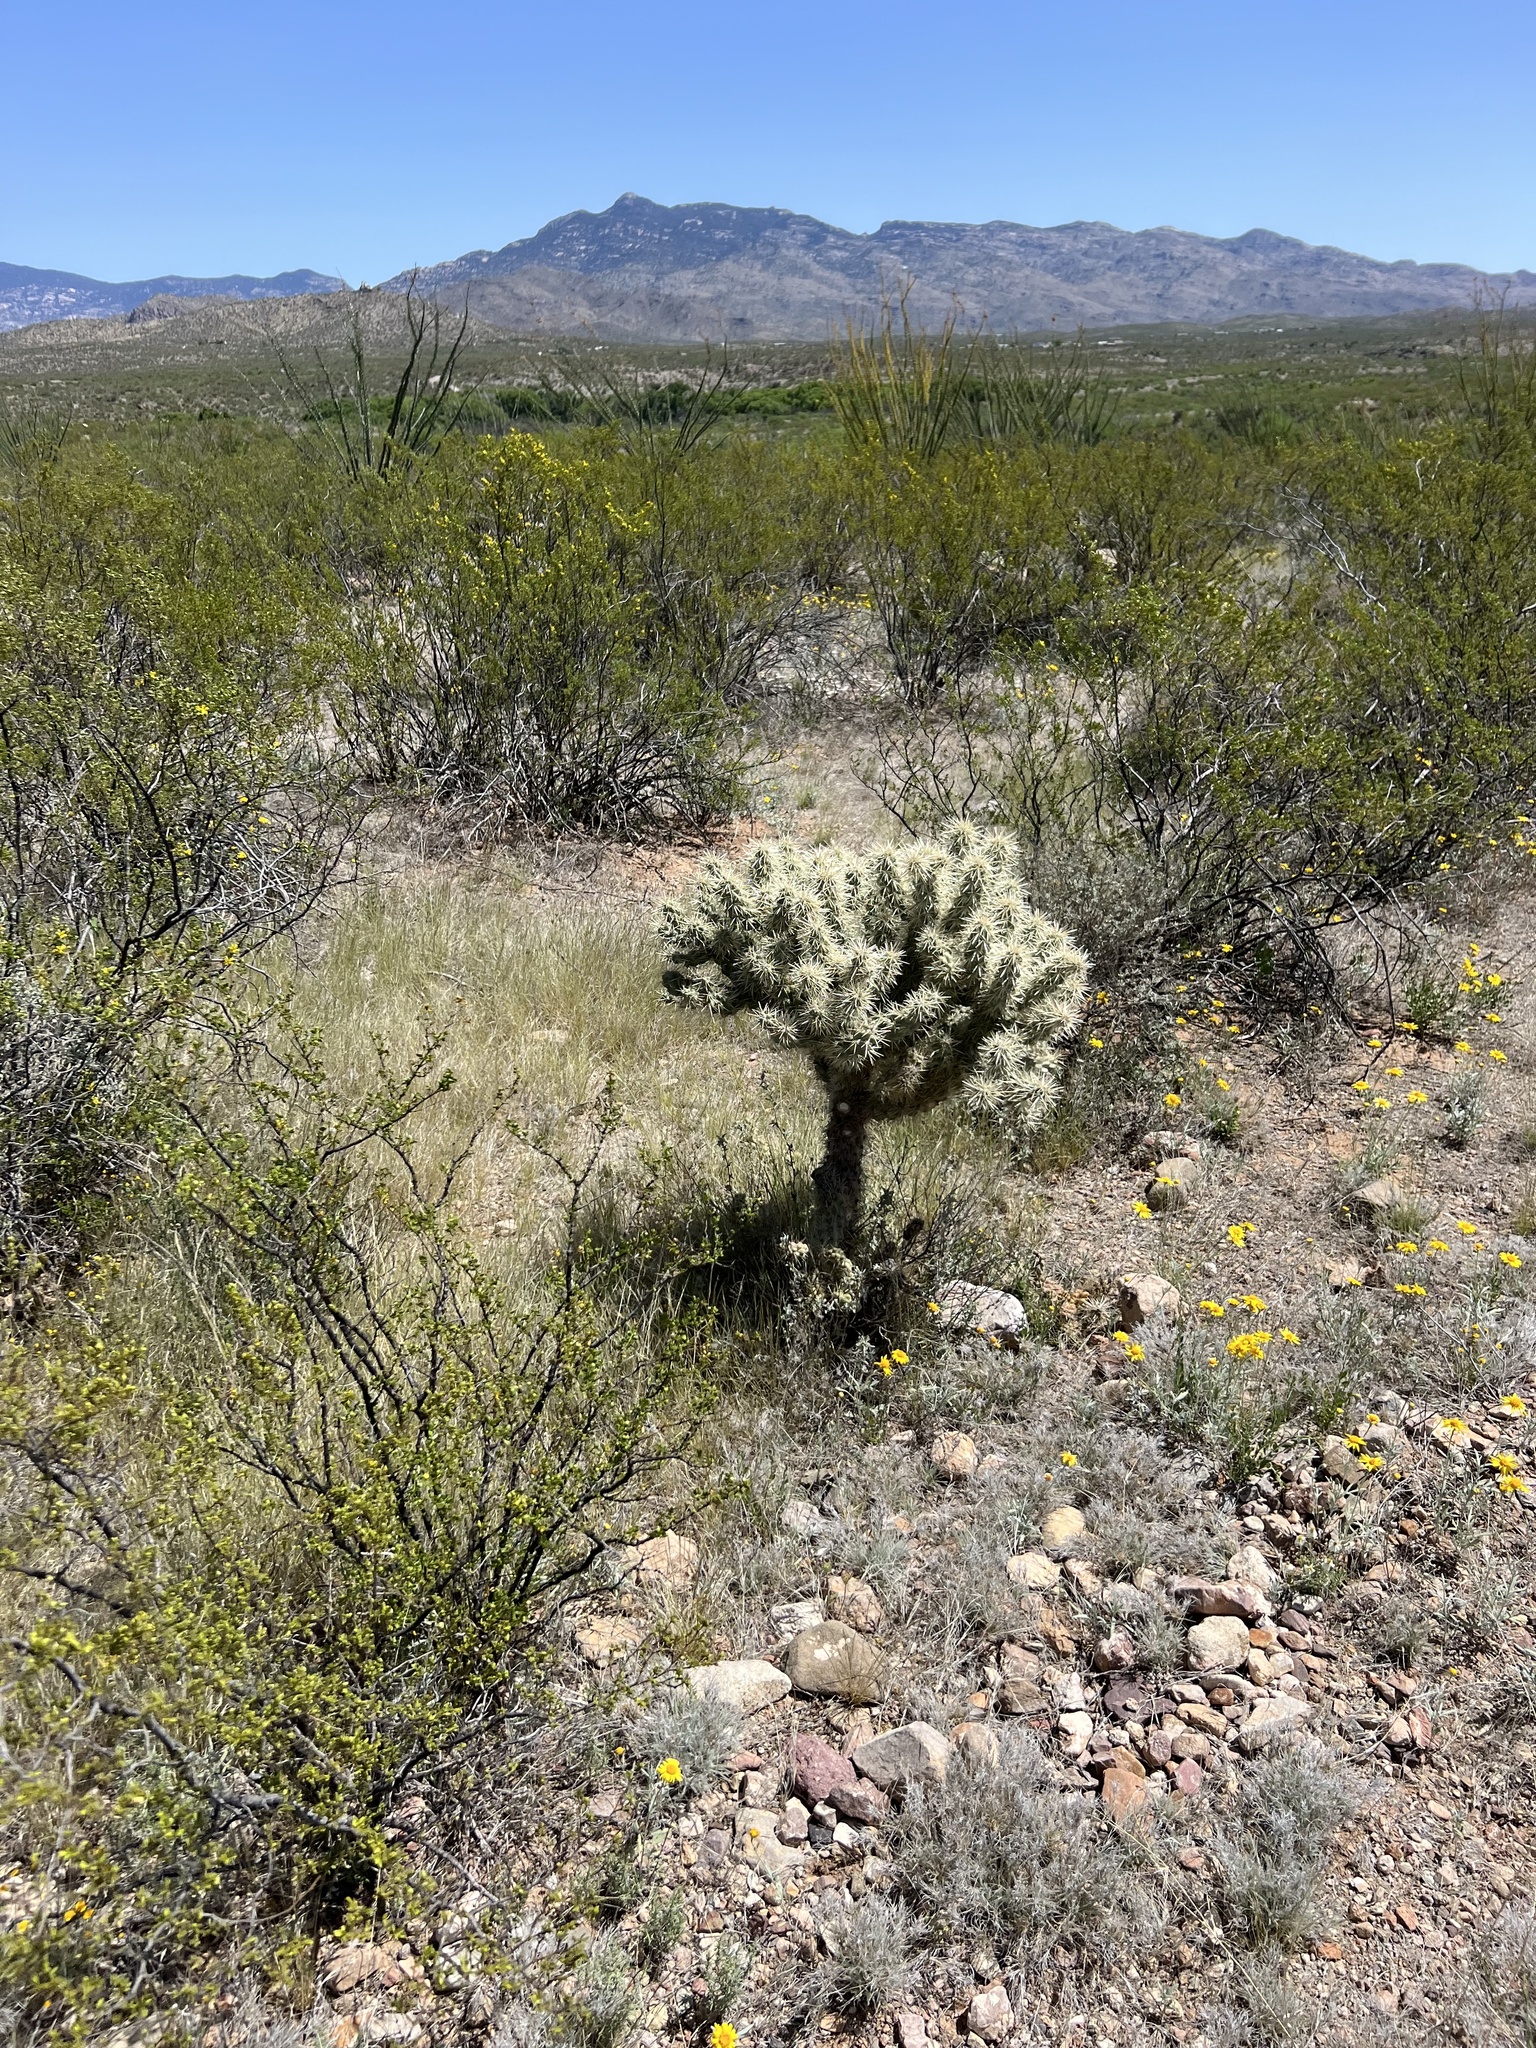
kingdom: Plantae
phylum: Tracheophyta
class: Magnoliopsida
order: Caryophyllales
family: Cactaceae
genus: Cylindropuntia
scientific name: Cylindropuntia fulgida
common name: Jumping cholla
